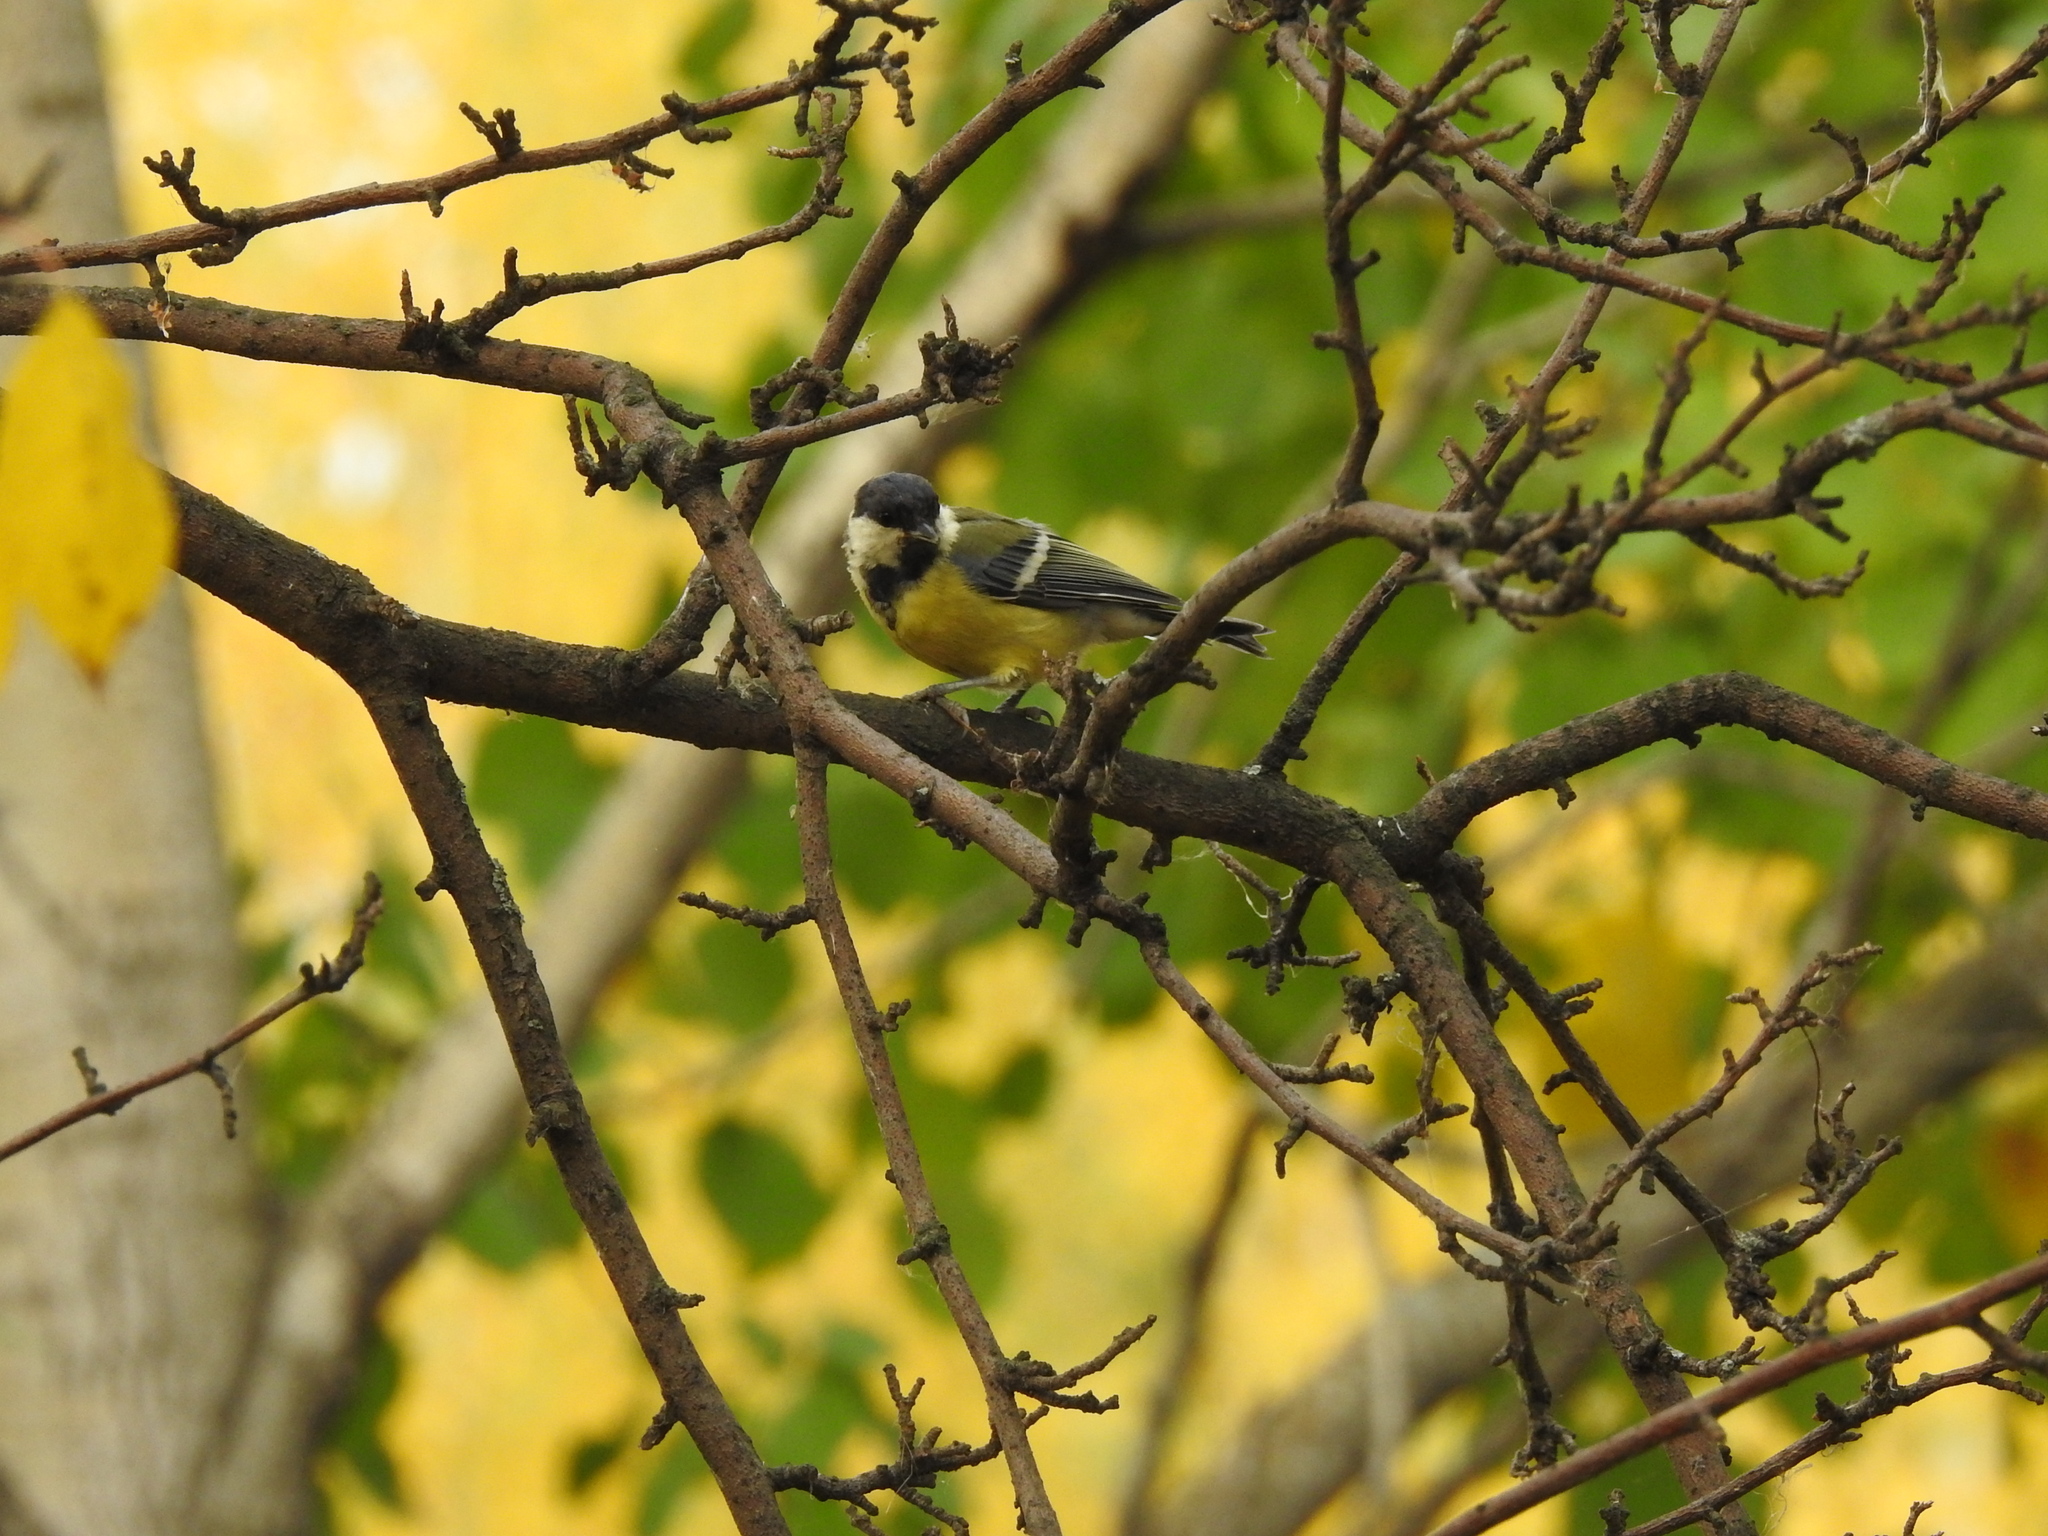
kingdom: Animalia
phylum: Chordata
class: Aves
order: Passeriformes
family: Paridae
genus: Parus
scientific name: Parus major
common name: Great tit
